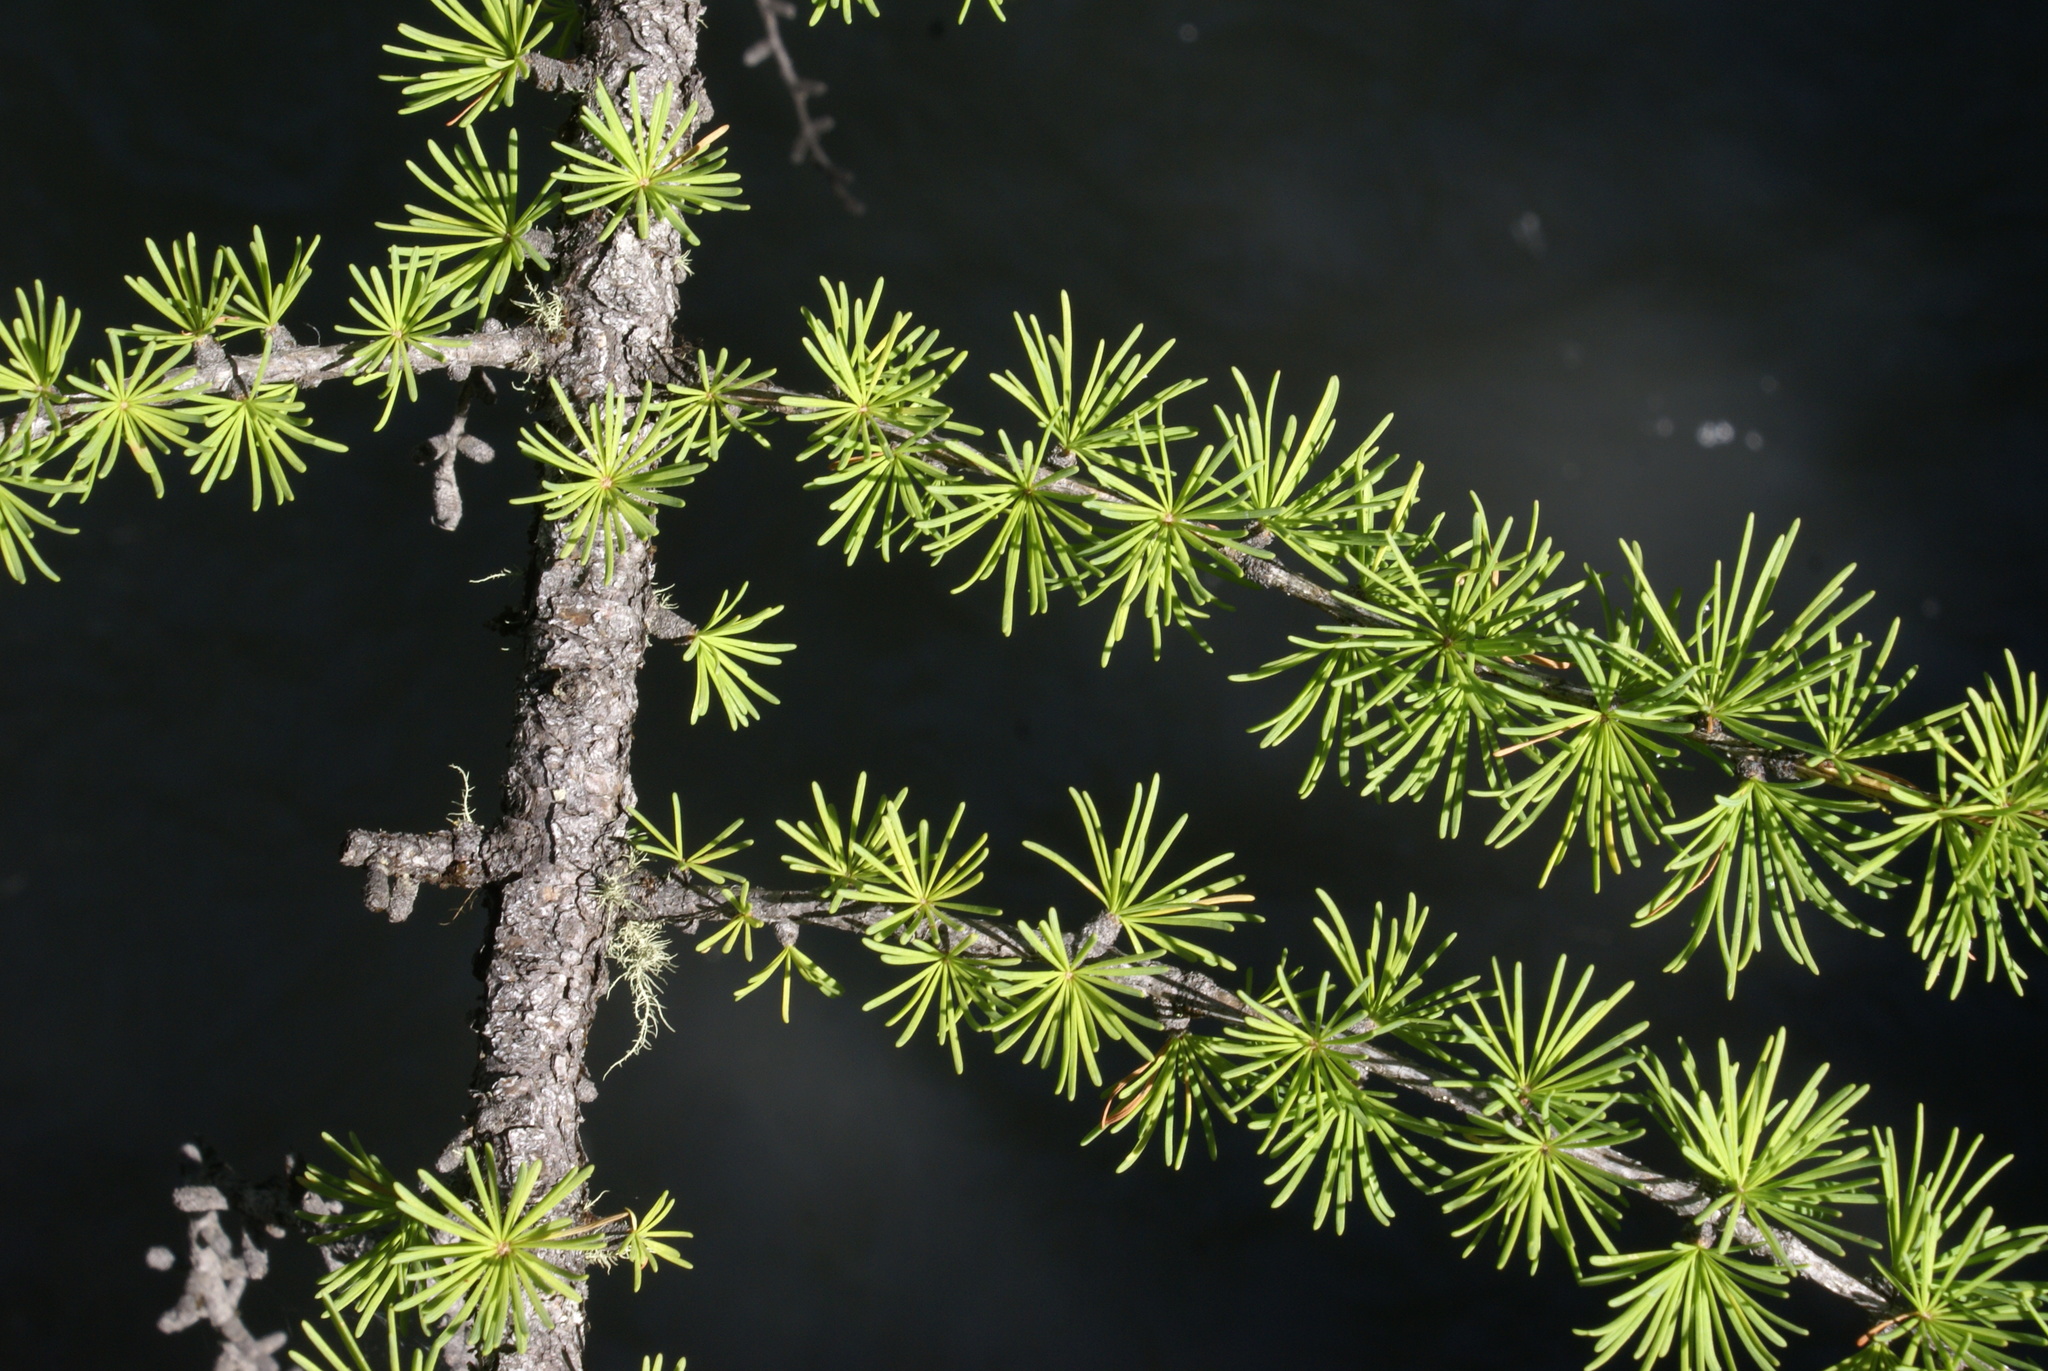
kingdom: Plantae
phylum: Tracheophyta
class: Pinopsida
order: Pinales
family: Pinaceae
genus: Larix
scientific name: Larix sibirica
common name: Siberian larch
